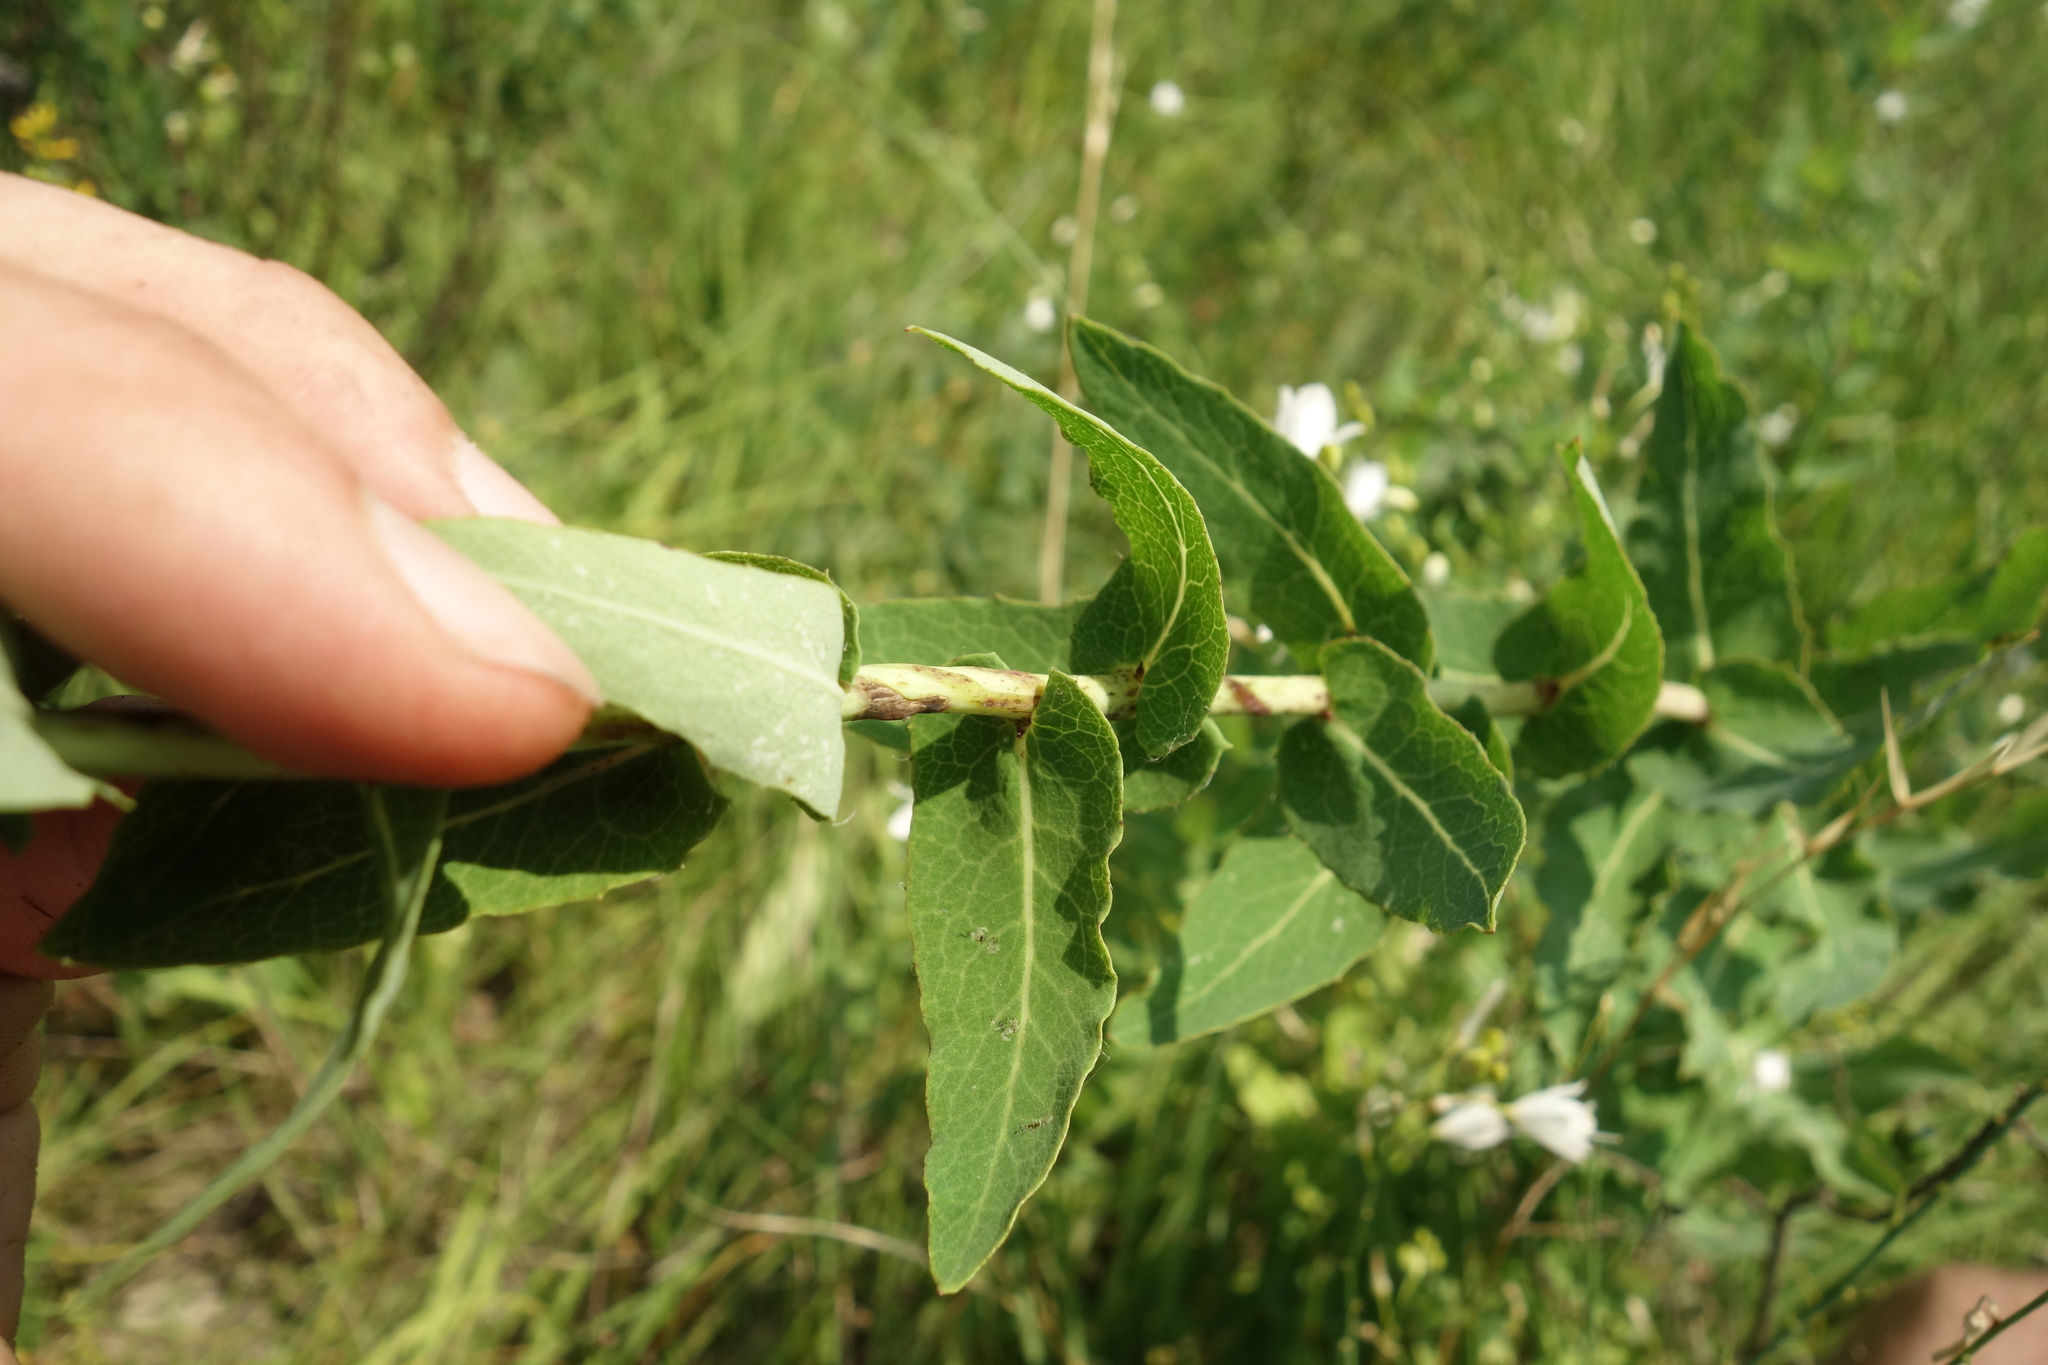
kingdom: Plantae
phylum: Tracheophyta
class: Magnoliopsida
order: Asterales
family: Asteraceae
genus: Hieracium
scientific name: Hieracium virosum
